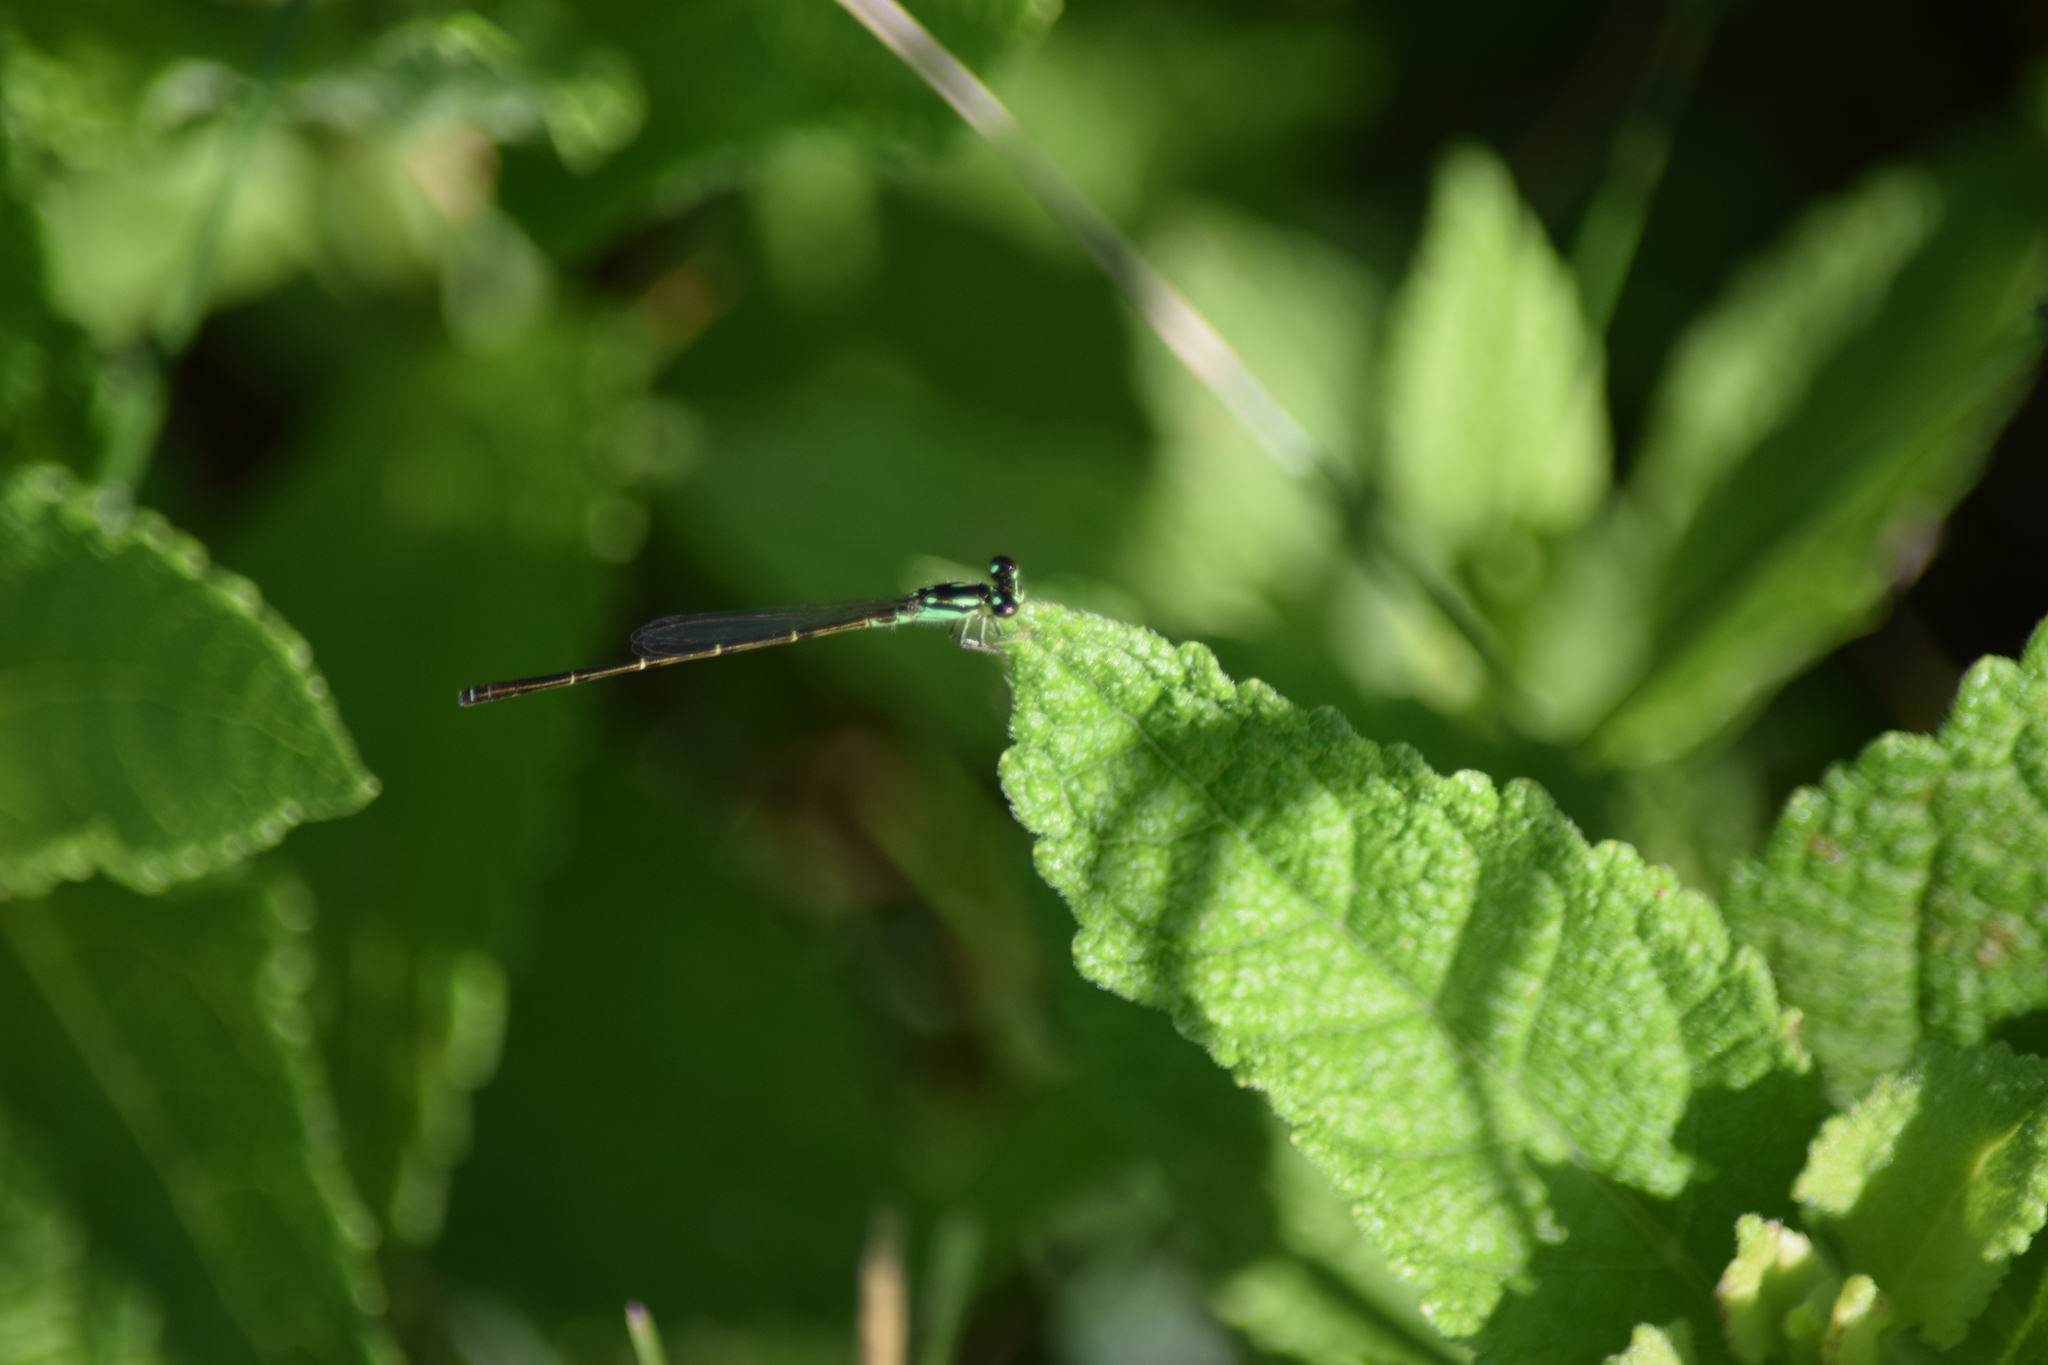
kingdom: Animalia
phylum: Arthropoda
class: Insecta
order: Odonata
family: Coenagrionidae
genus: Ischnura
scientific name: Ischnura posita
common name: Fragile forktail
